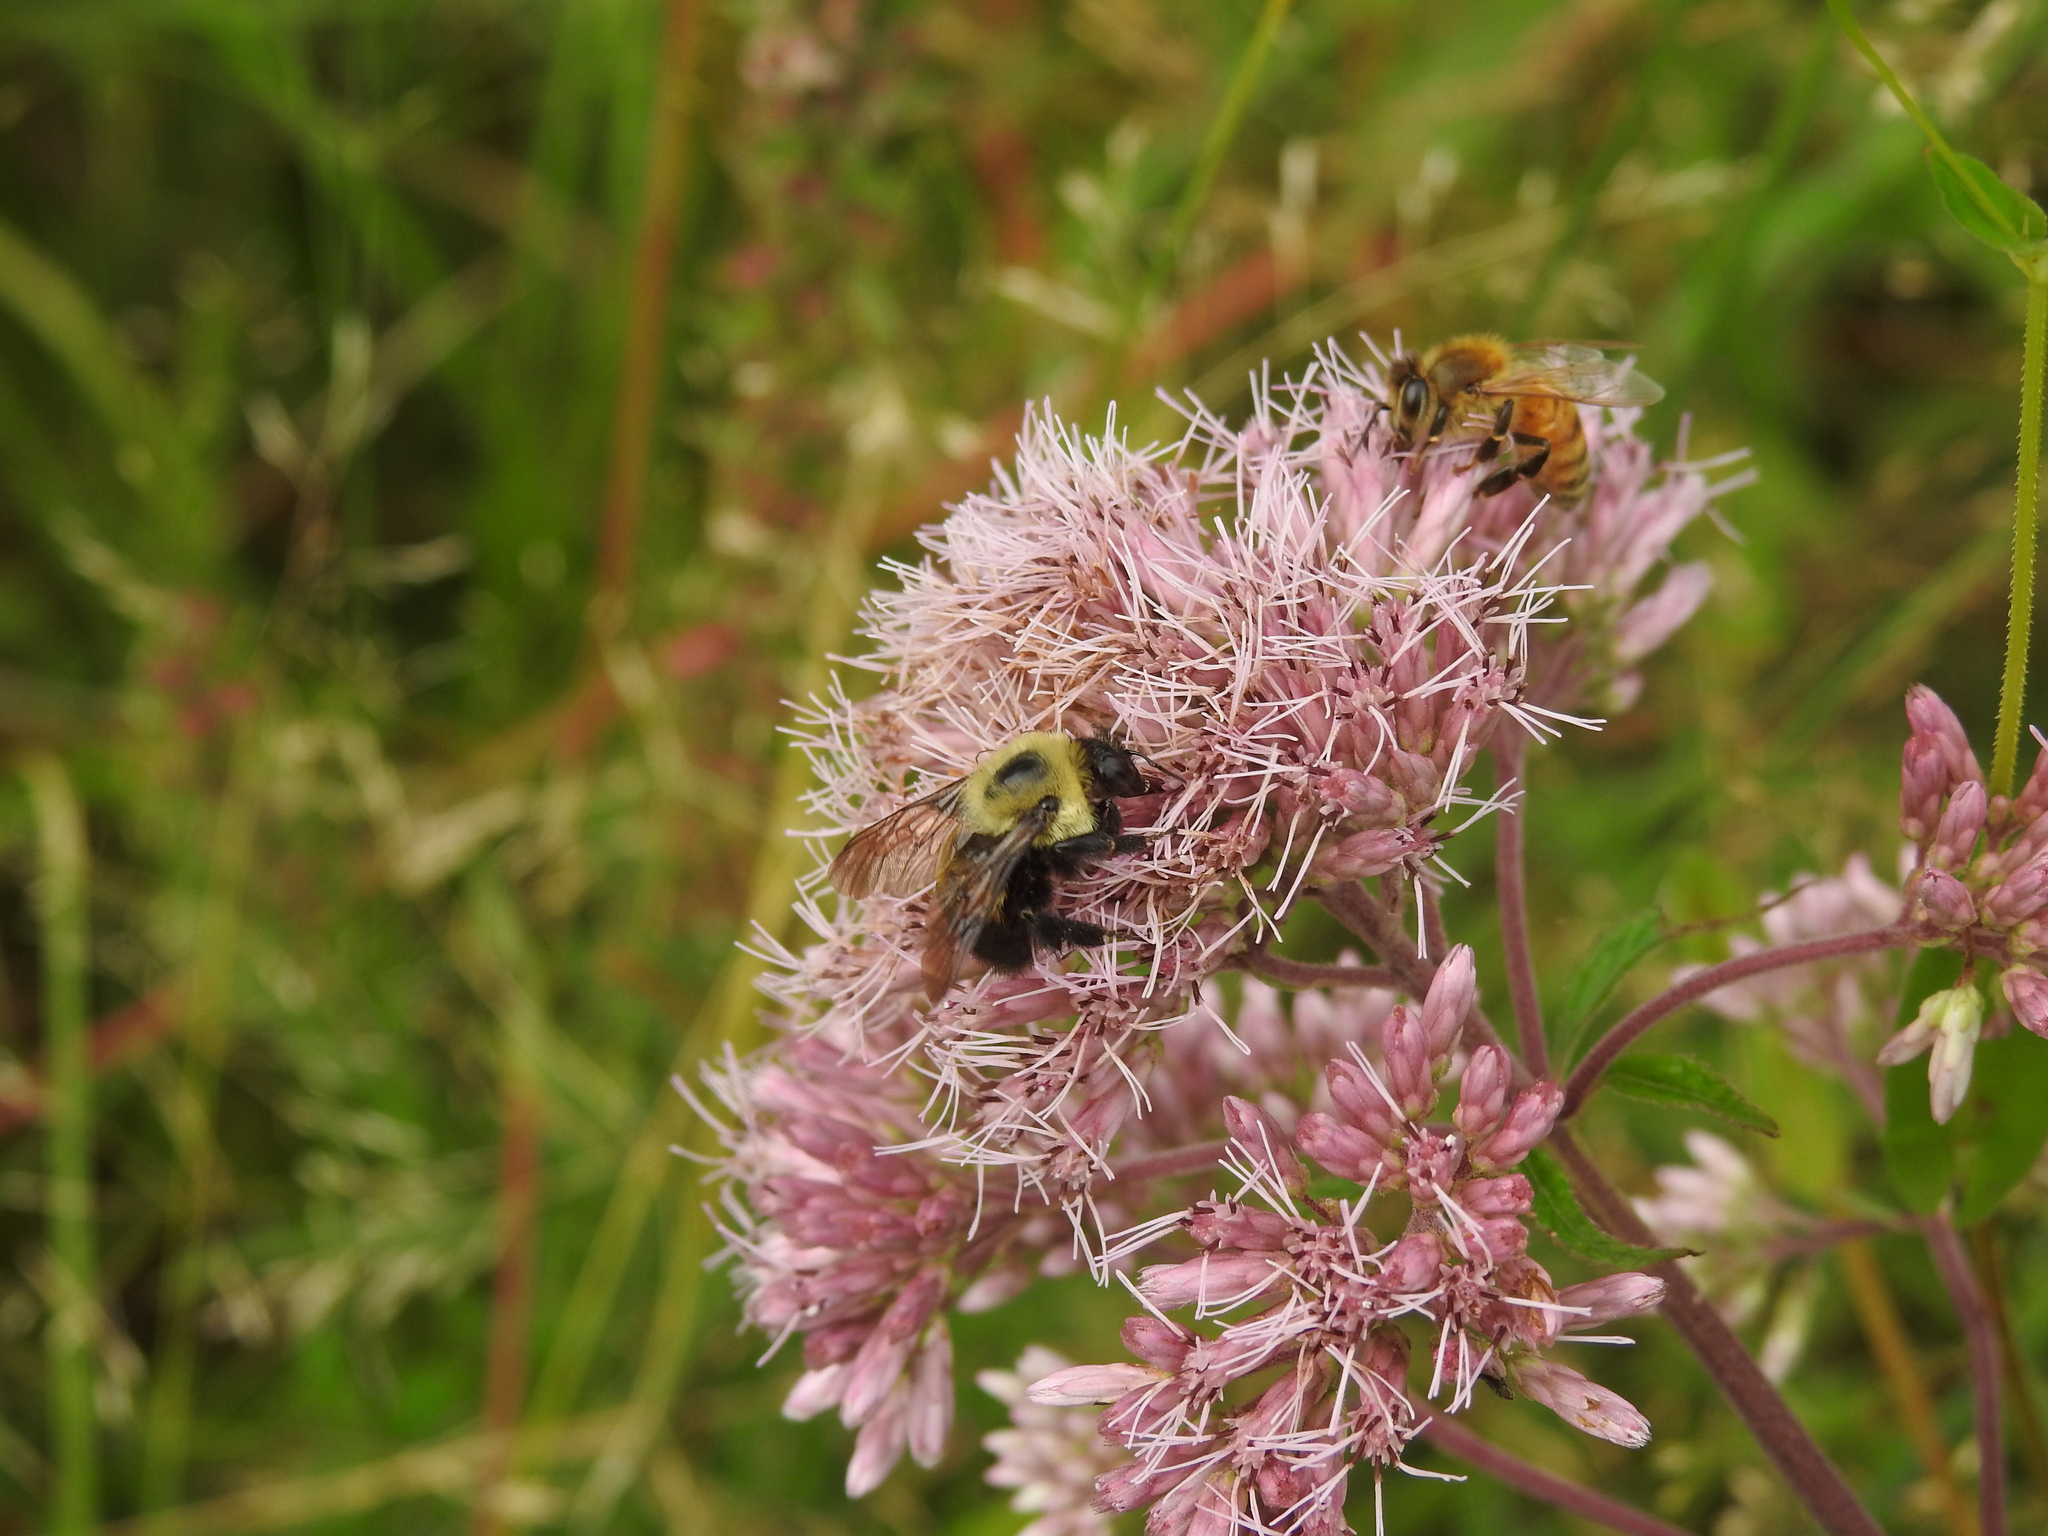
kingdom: Animalia
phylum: Arthropoda
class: Insecta
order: Hymenoptera
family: Apidae
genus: Bombus
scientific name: Bombus griseocollis
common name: Brown-belted bumble bee
